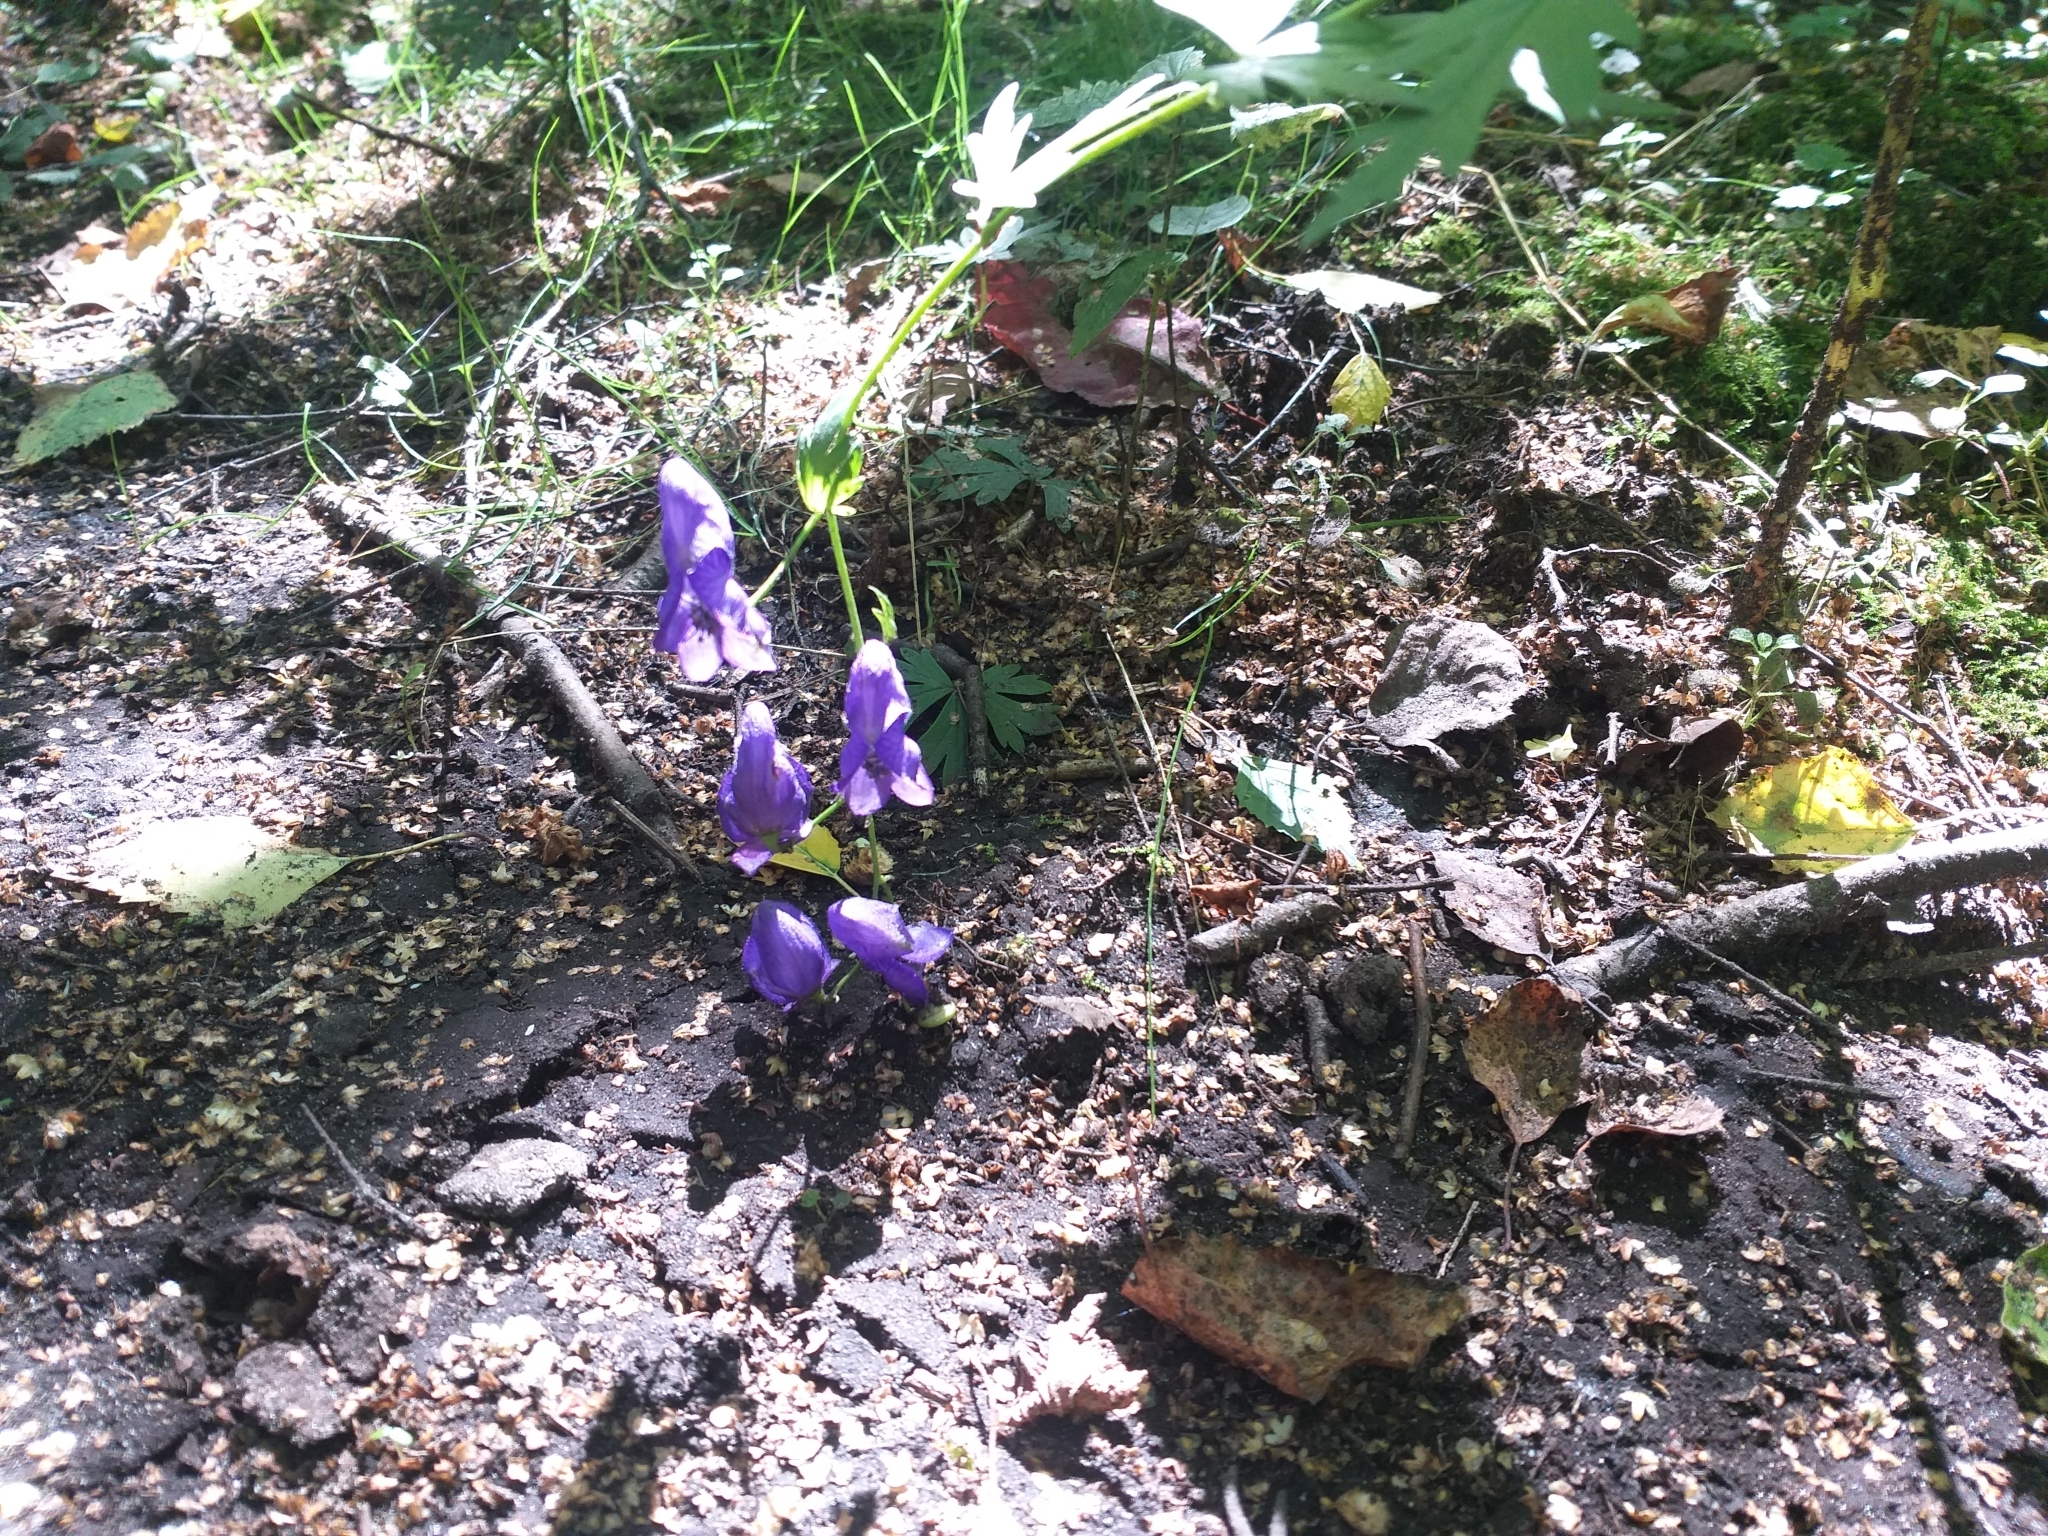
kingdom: Plantae
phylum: Tracheophyta
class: Magnoliopsida
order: Ranunculales
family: Ranunculaceae
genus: Aconitum
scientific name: Aconitum cammarum
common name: Hybrid monk's-hood
